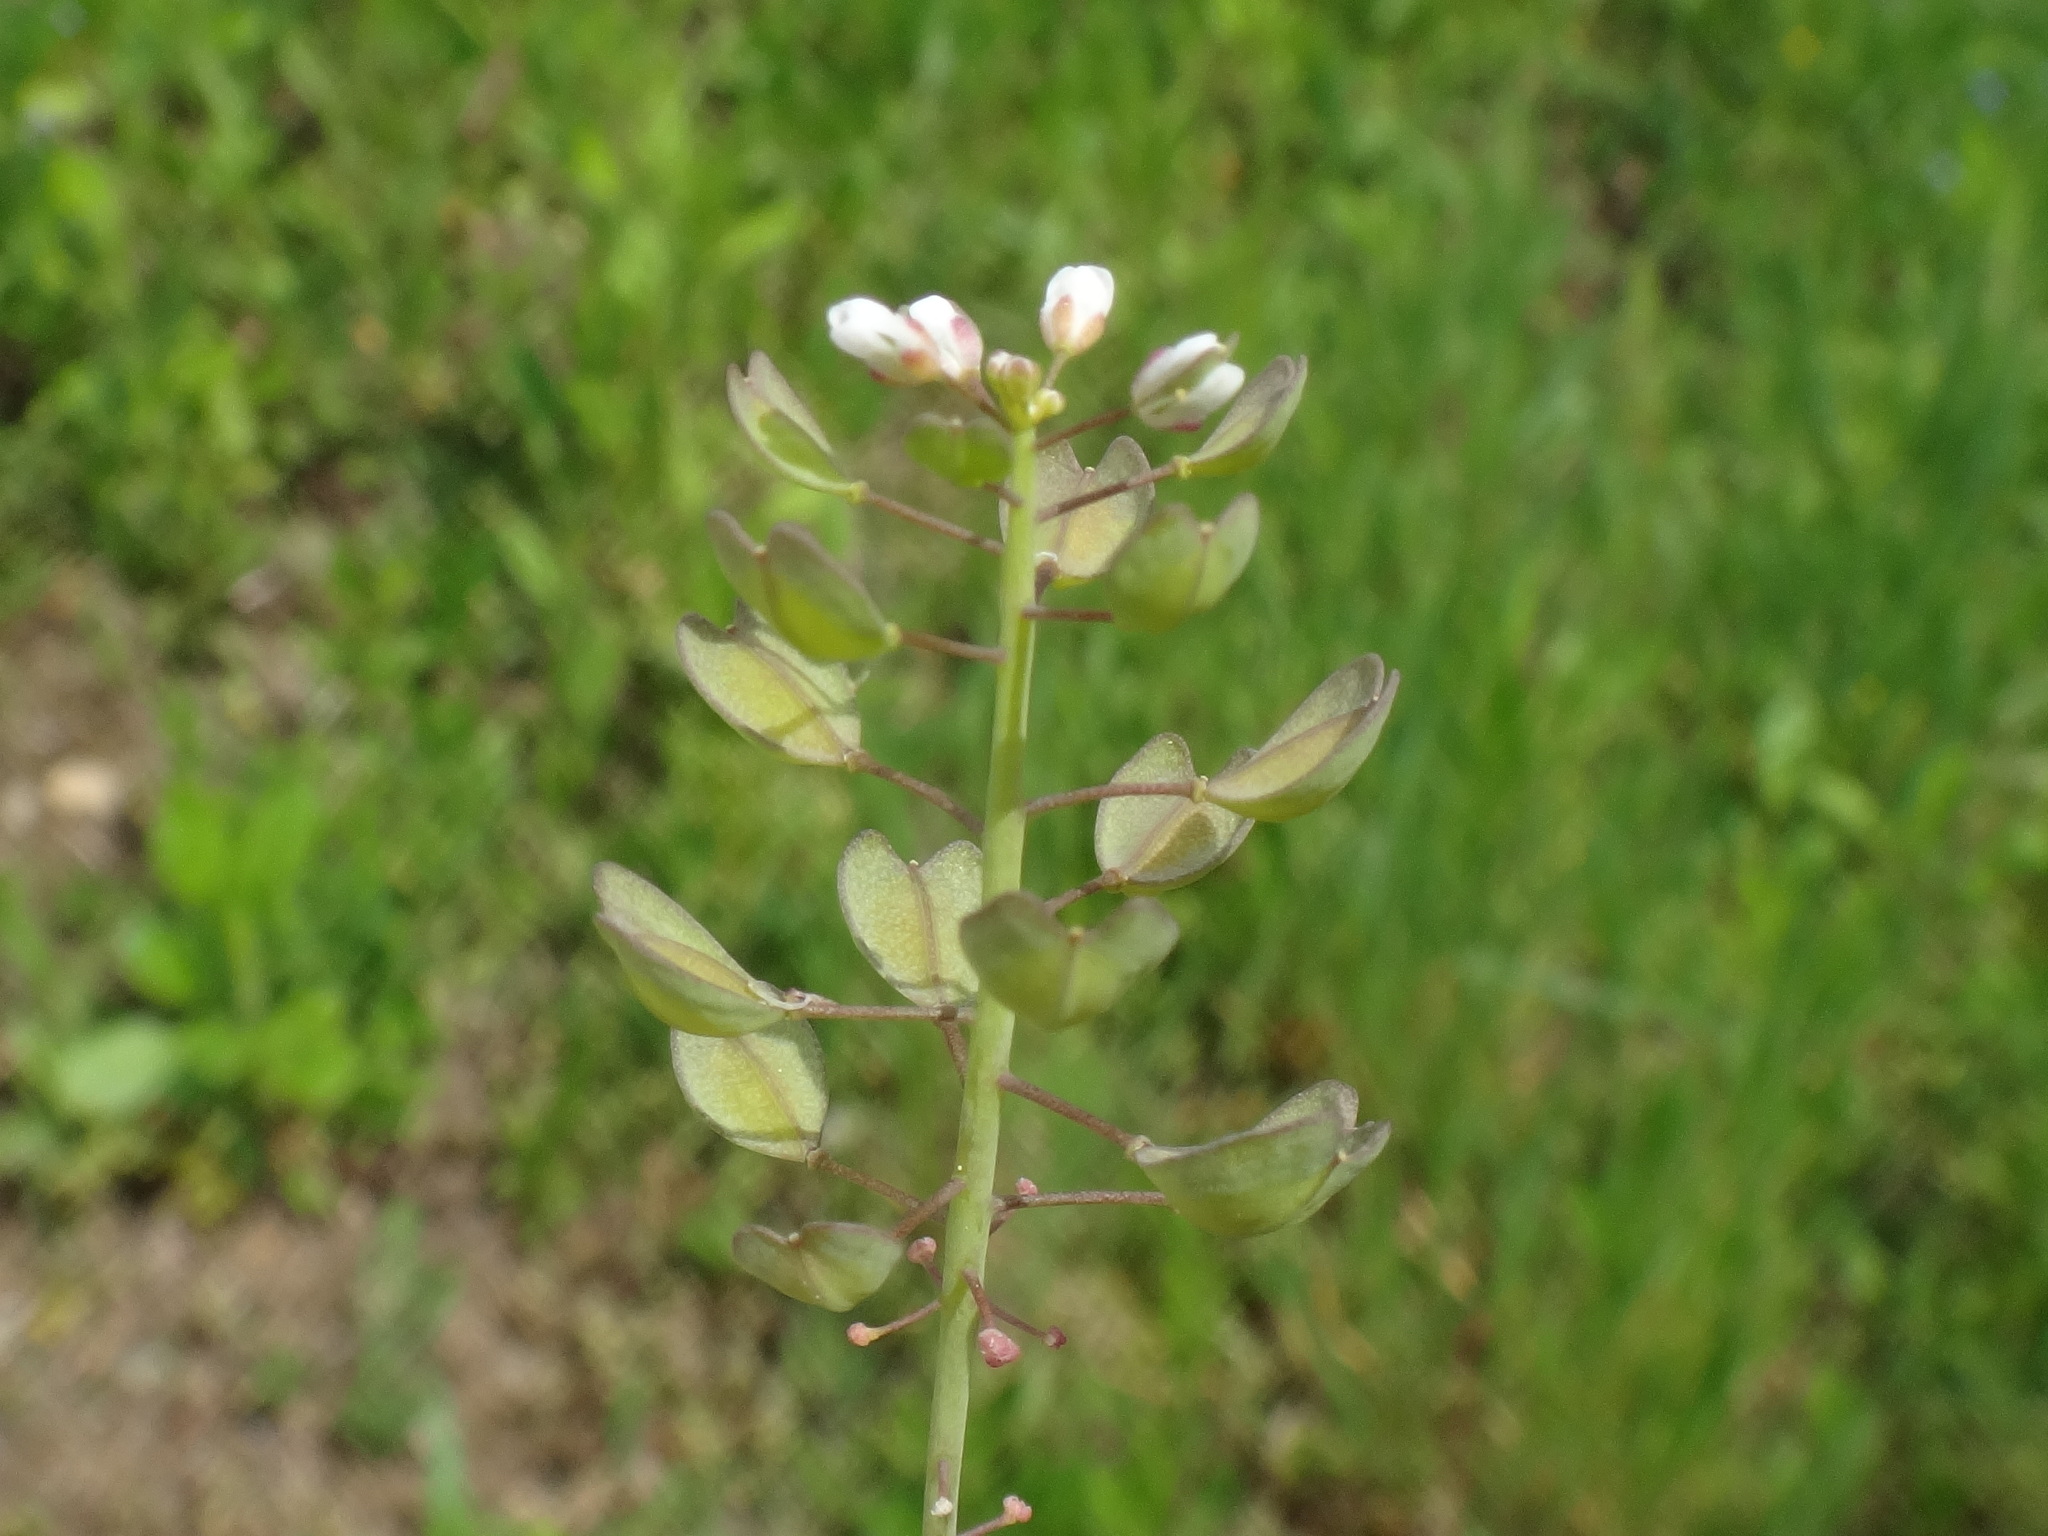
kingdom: Plantae
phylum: Tracheophyta
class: Magnoliopsida
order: Brassicales
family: Brassicaceae
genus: Noccaea
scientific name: Noccaea perfoliata
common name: Perfoliate pennycress
